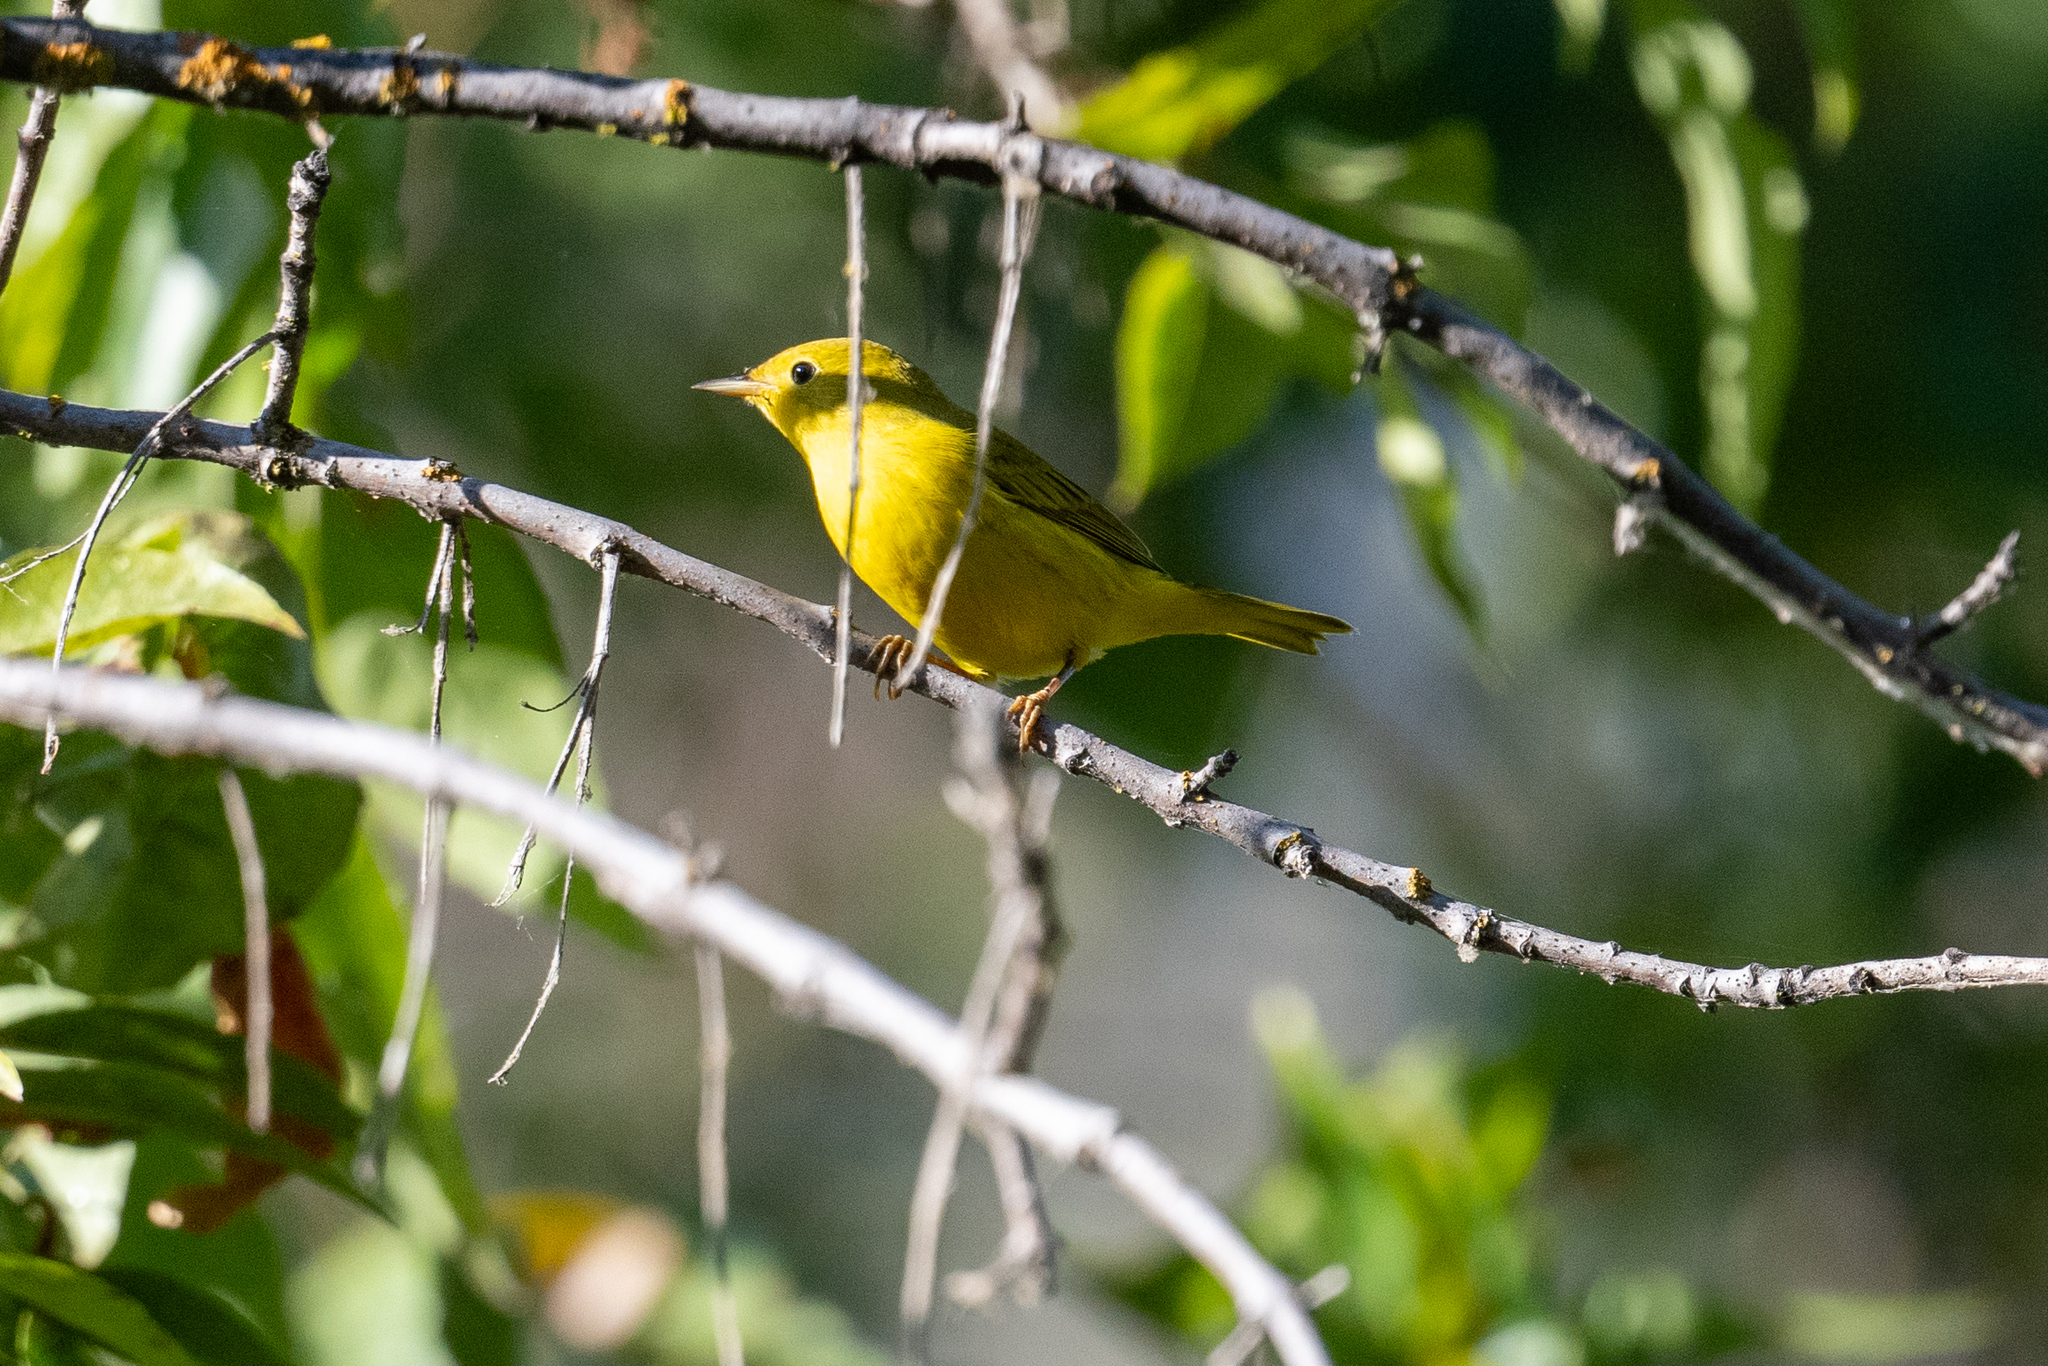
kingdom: Animalia
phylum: Chordata
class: Aves
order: Passeriformes
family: Parulidae
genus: Setophaga
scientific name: Setophaga petechia
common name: Yellow warbler
